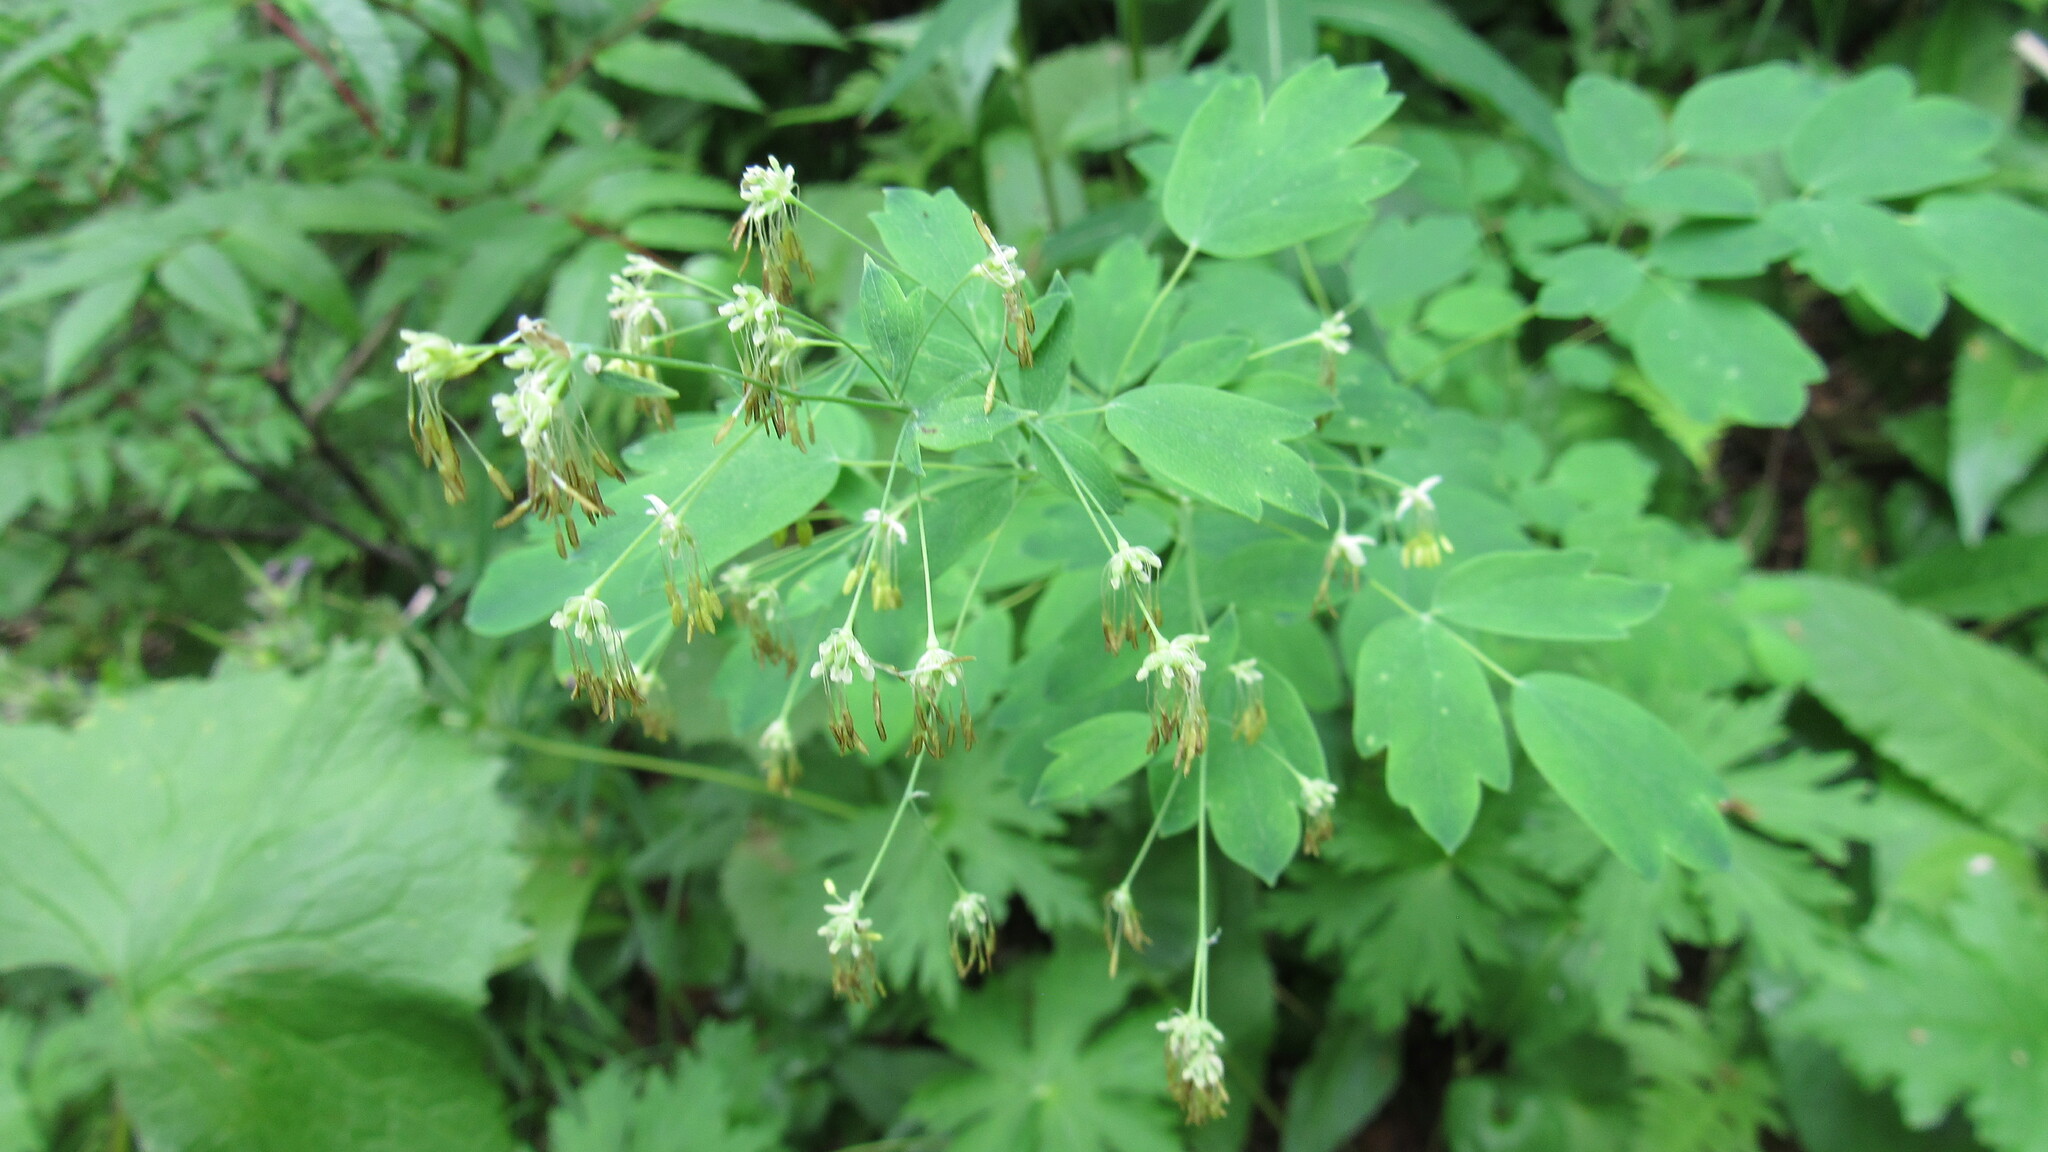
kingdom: Plantae
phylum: Tracheophyta
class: Magnoliopsida
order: Ranunculales
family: Ranunculaceae
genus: Thalictrum
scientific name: Thalictrum minus
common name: Lesser meadow-rue
